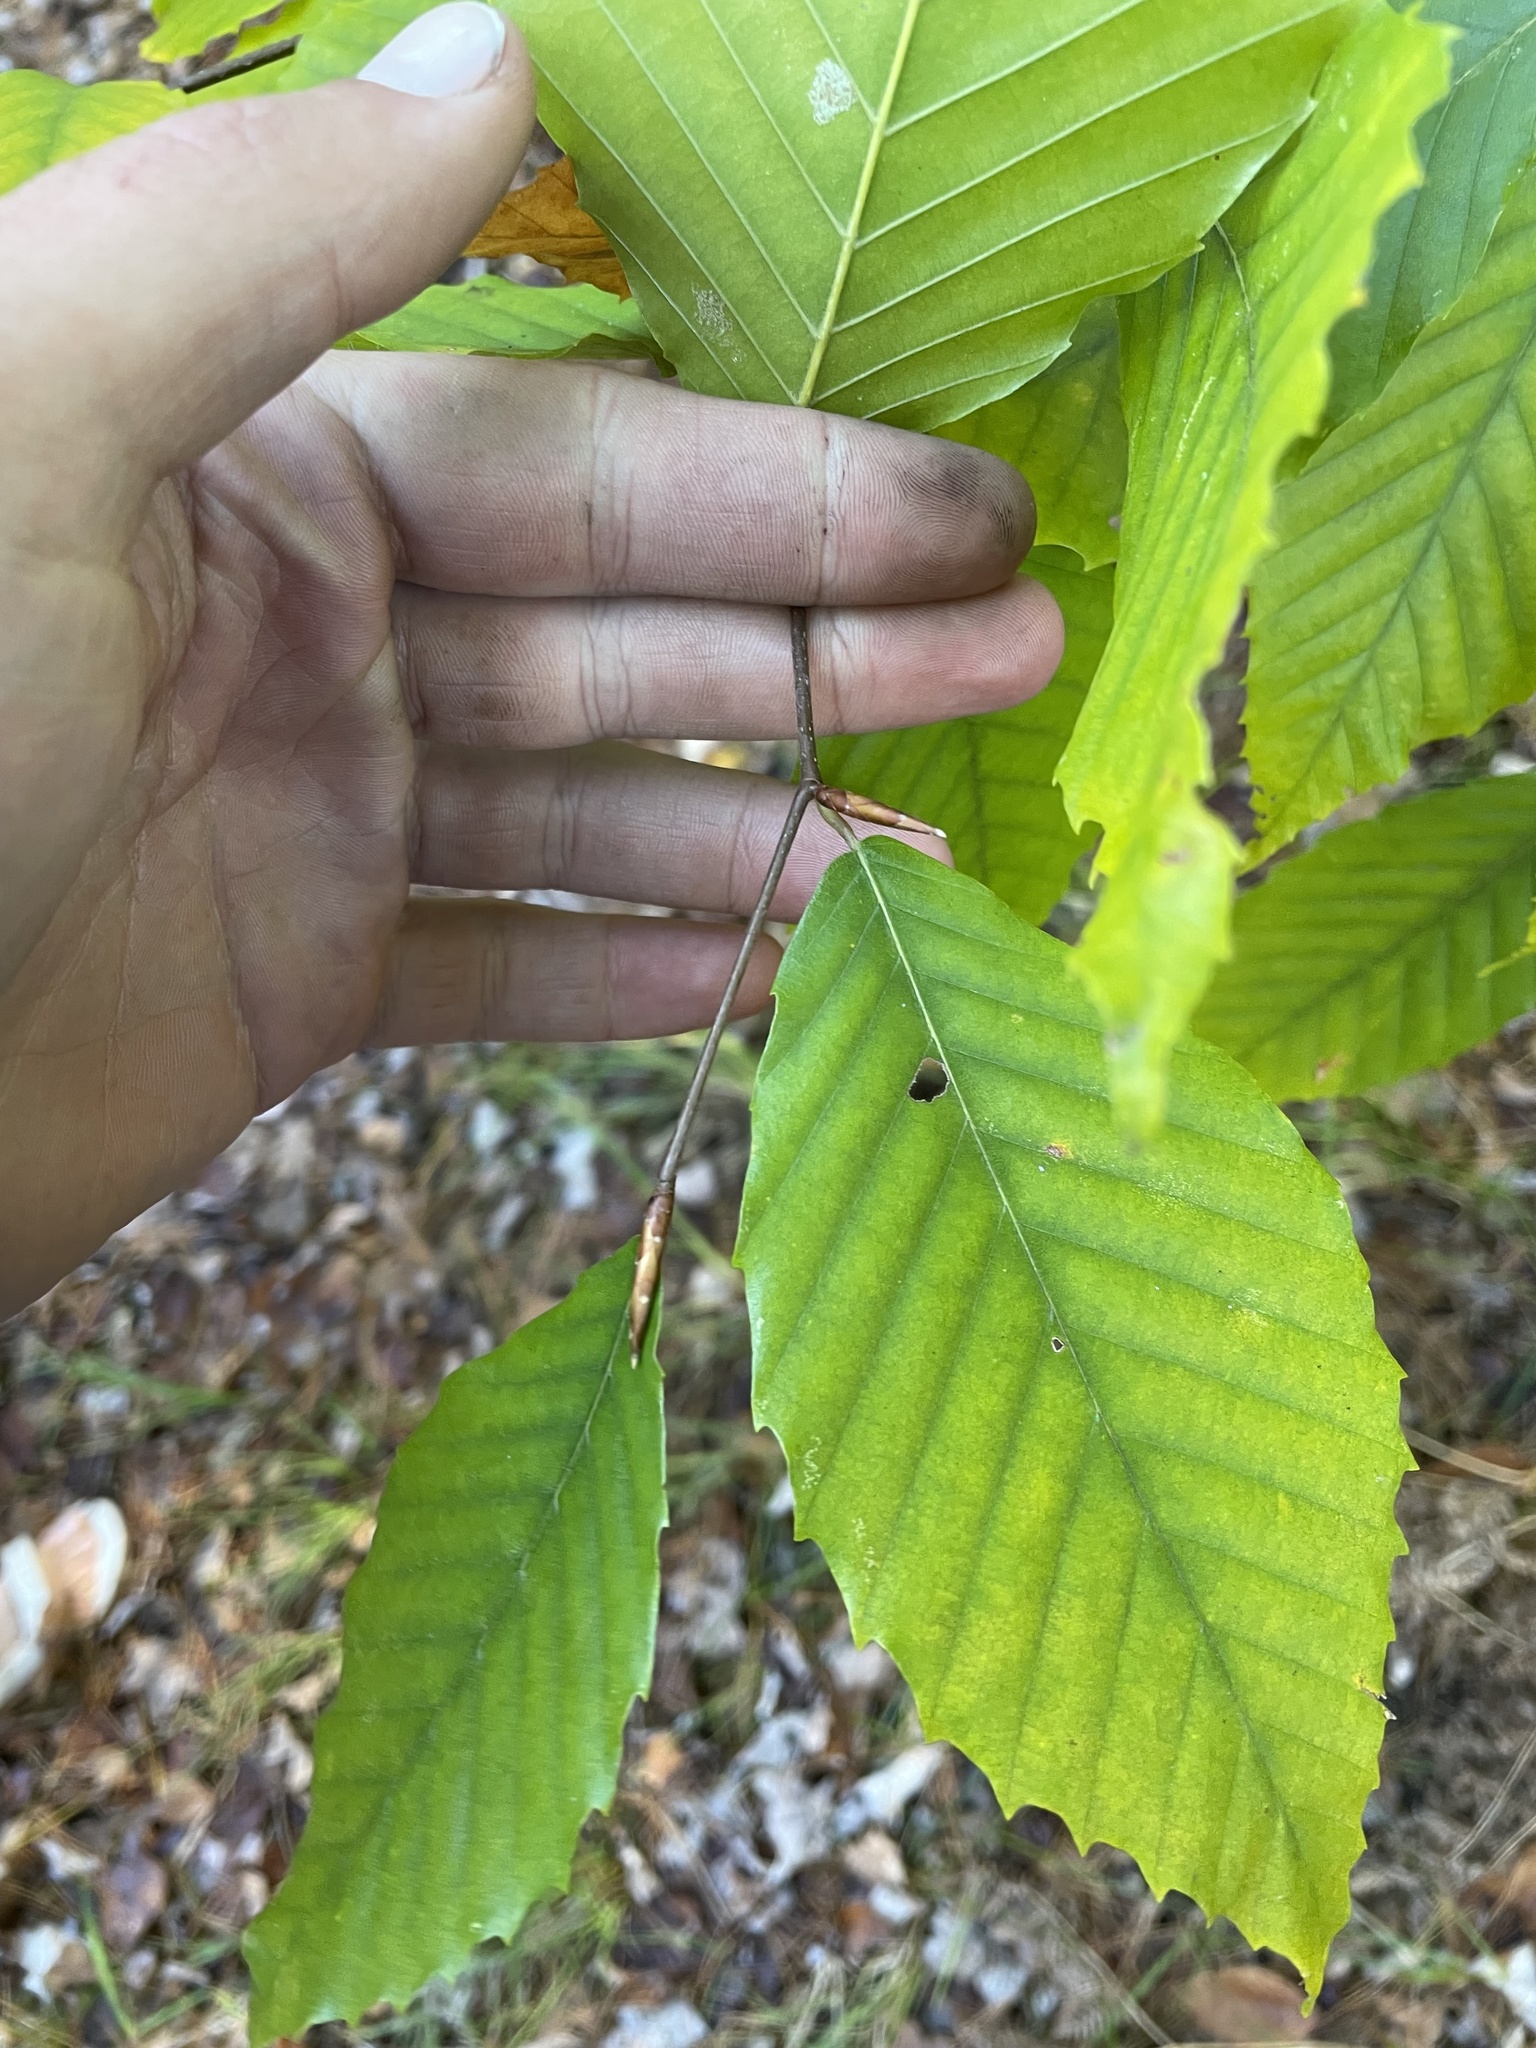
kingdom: Plantae
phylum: Tracheophyta
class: Magnoliopsida
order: Fagales
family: Fagaceae
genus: Fagus
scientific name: Fagus grandifolia
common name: American beech
